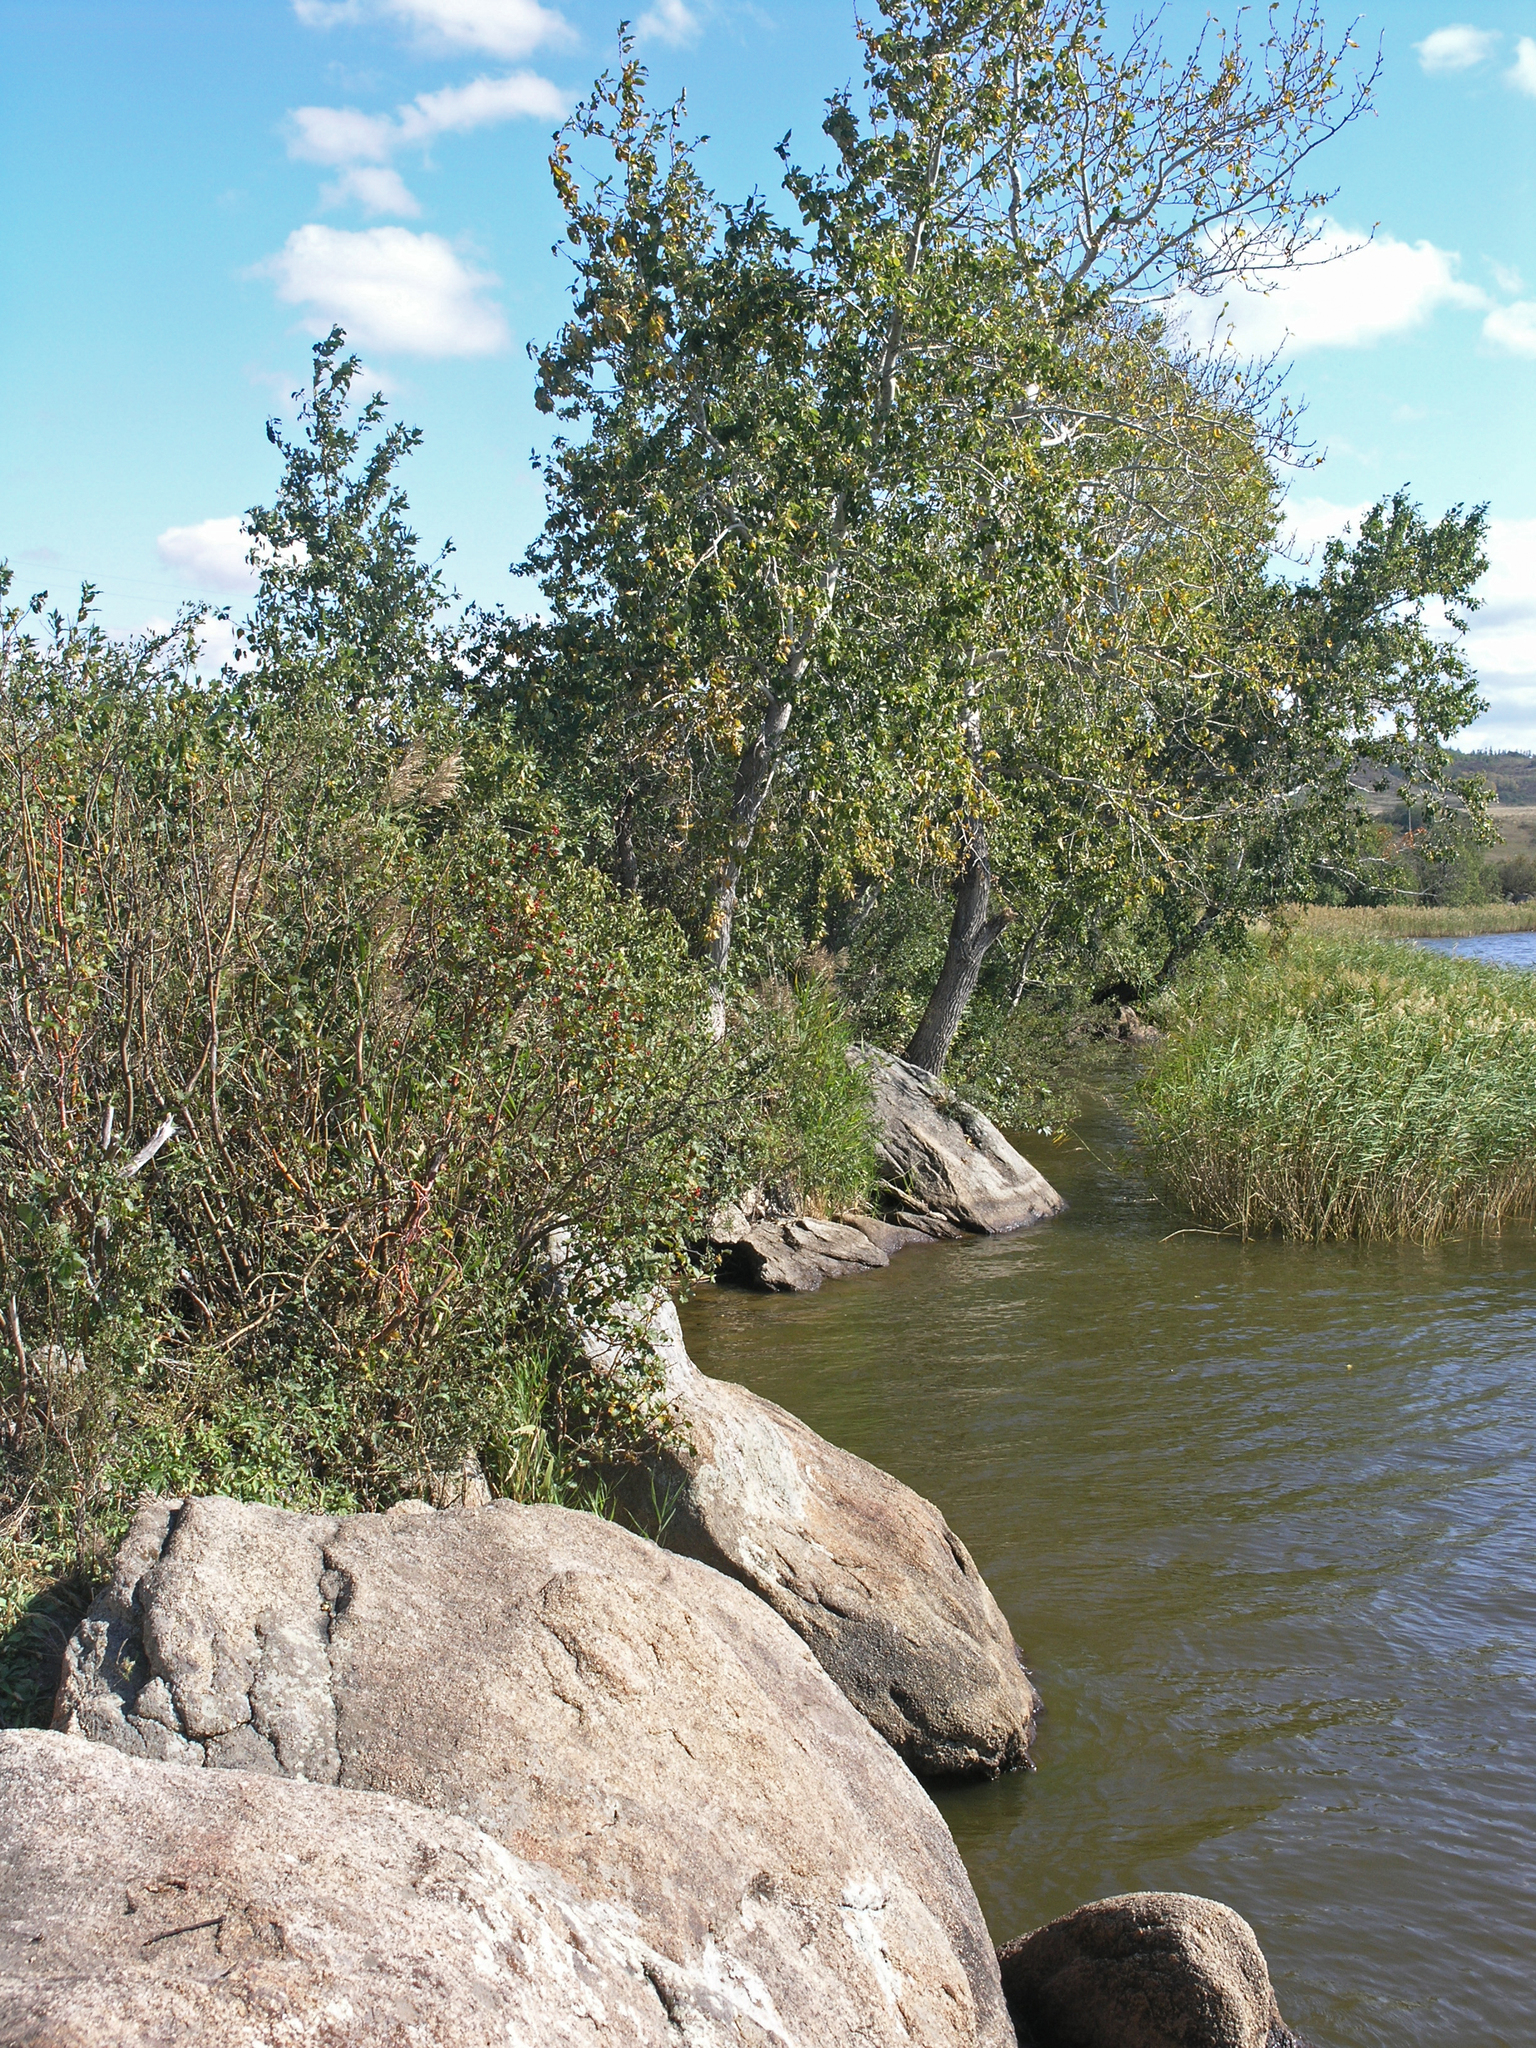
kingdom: Plantae
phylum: Tracheophyta
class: Magnoliopsida
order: Fagales
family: Betulaceae
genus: Betula
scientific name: Betula pendula
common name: Silver birch
